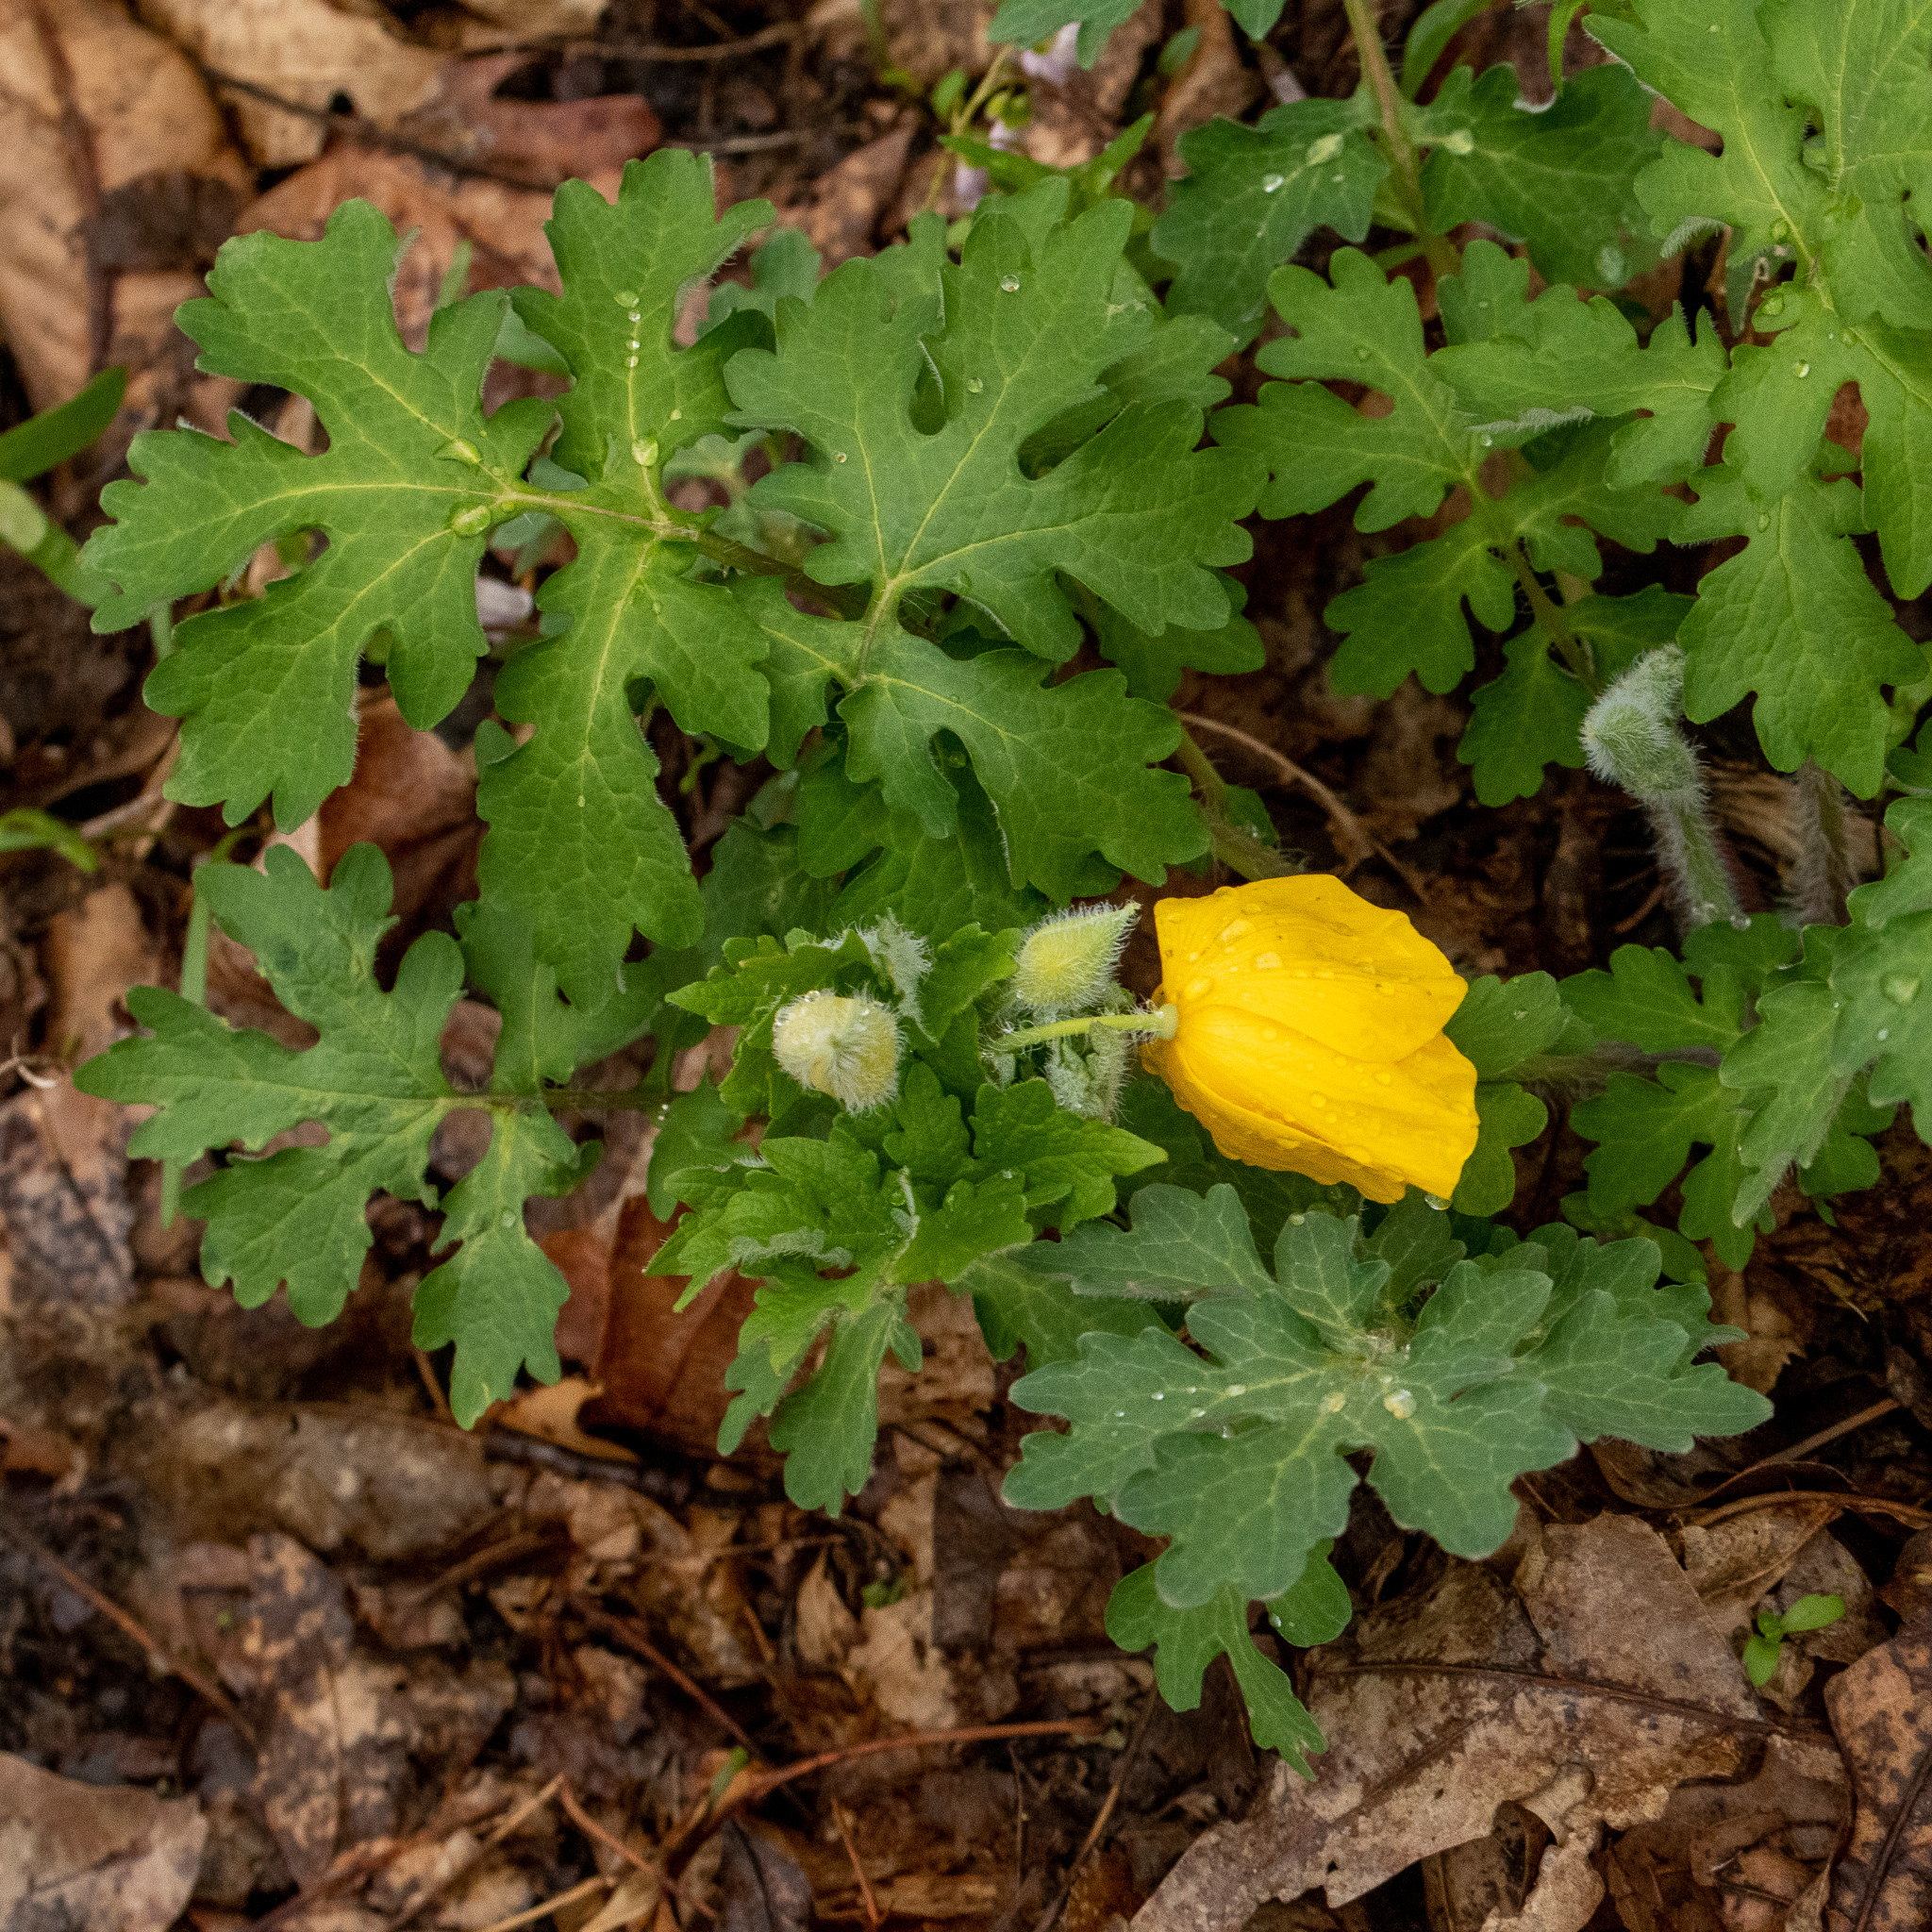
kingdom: Plantae
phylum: Tracheophyta
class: Magnoliopsida
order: Ranunculales
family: Papaveraceae
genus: Stylophorum
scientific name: Stylophorum diphyllum
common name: Celandine poppy
